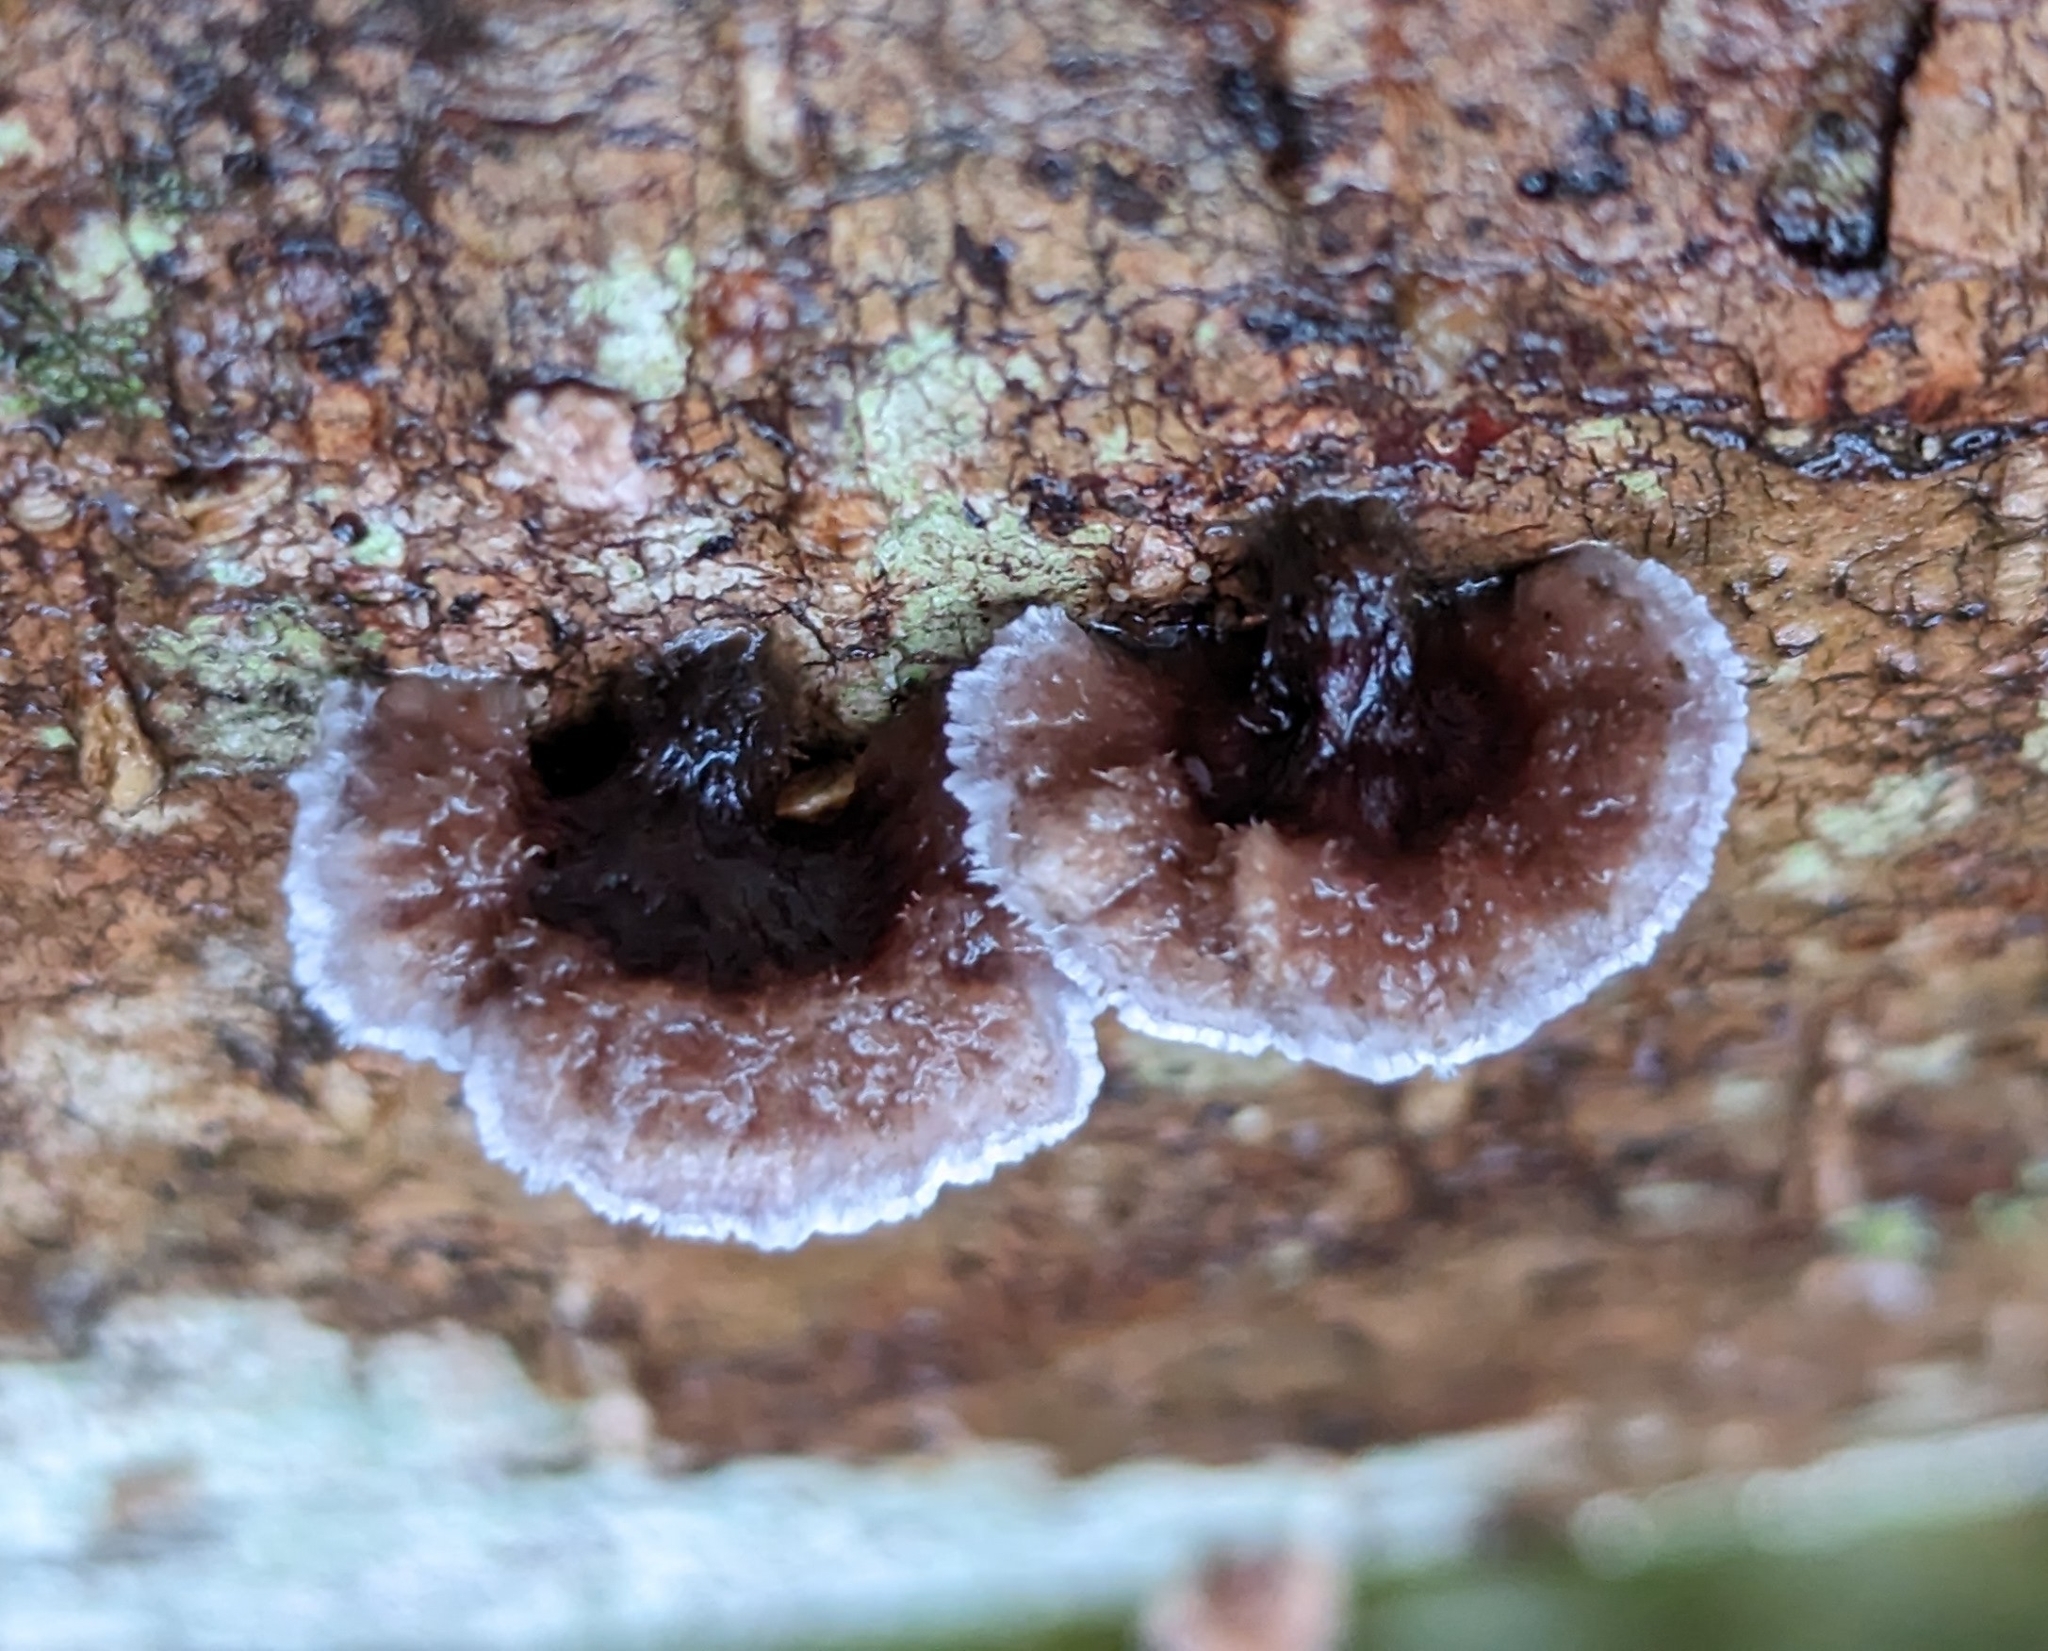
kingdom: Fungi
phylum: Basidiomycota
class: Agaricomycetes
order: Agaricales
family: Cyphellaceae
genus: Chondrostereum
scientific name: Chondrostereum purpureum
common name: Silver leaf disease
